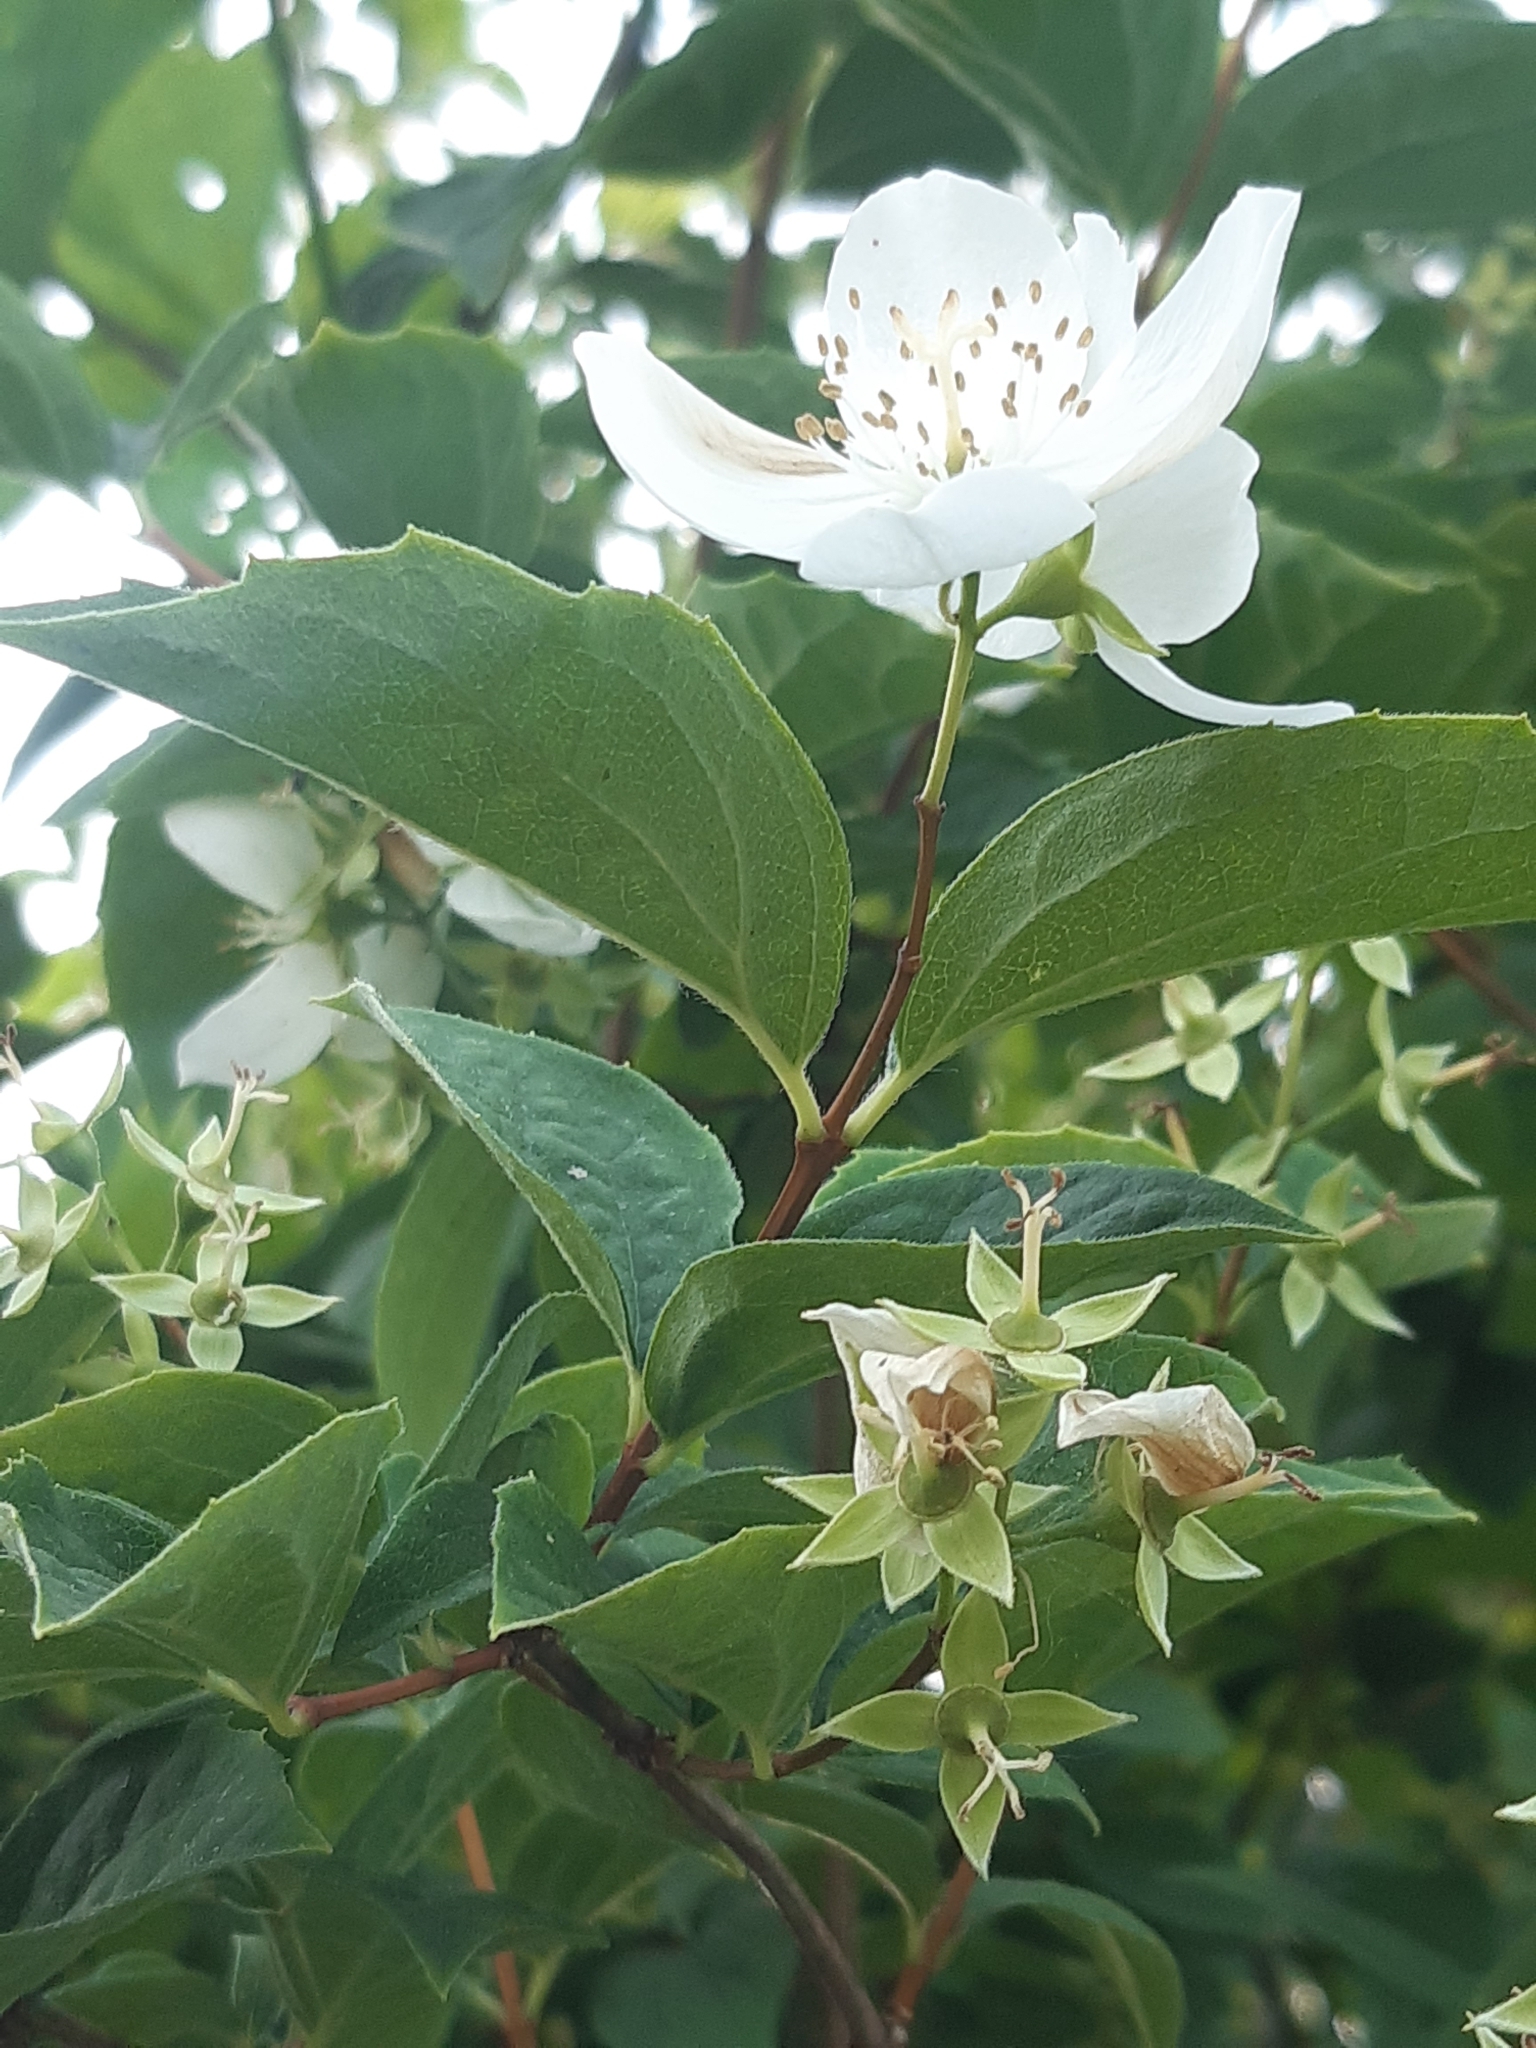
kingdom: Plantae
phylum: Tracheophyta
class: Magnoliopsida
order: Cornales
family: Hydrangeaceae
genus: Philadelphus
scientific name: Philadelphus coronarius
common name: Mock orange
